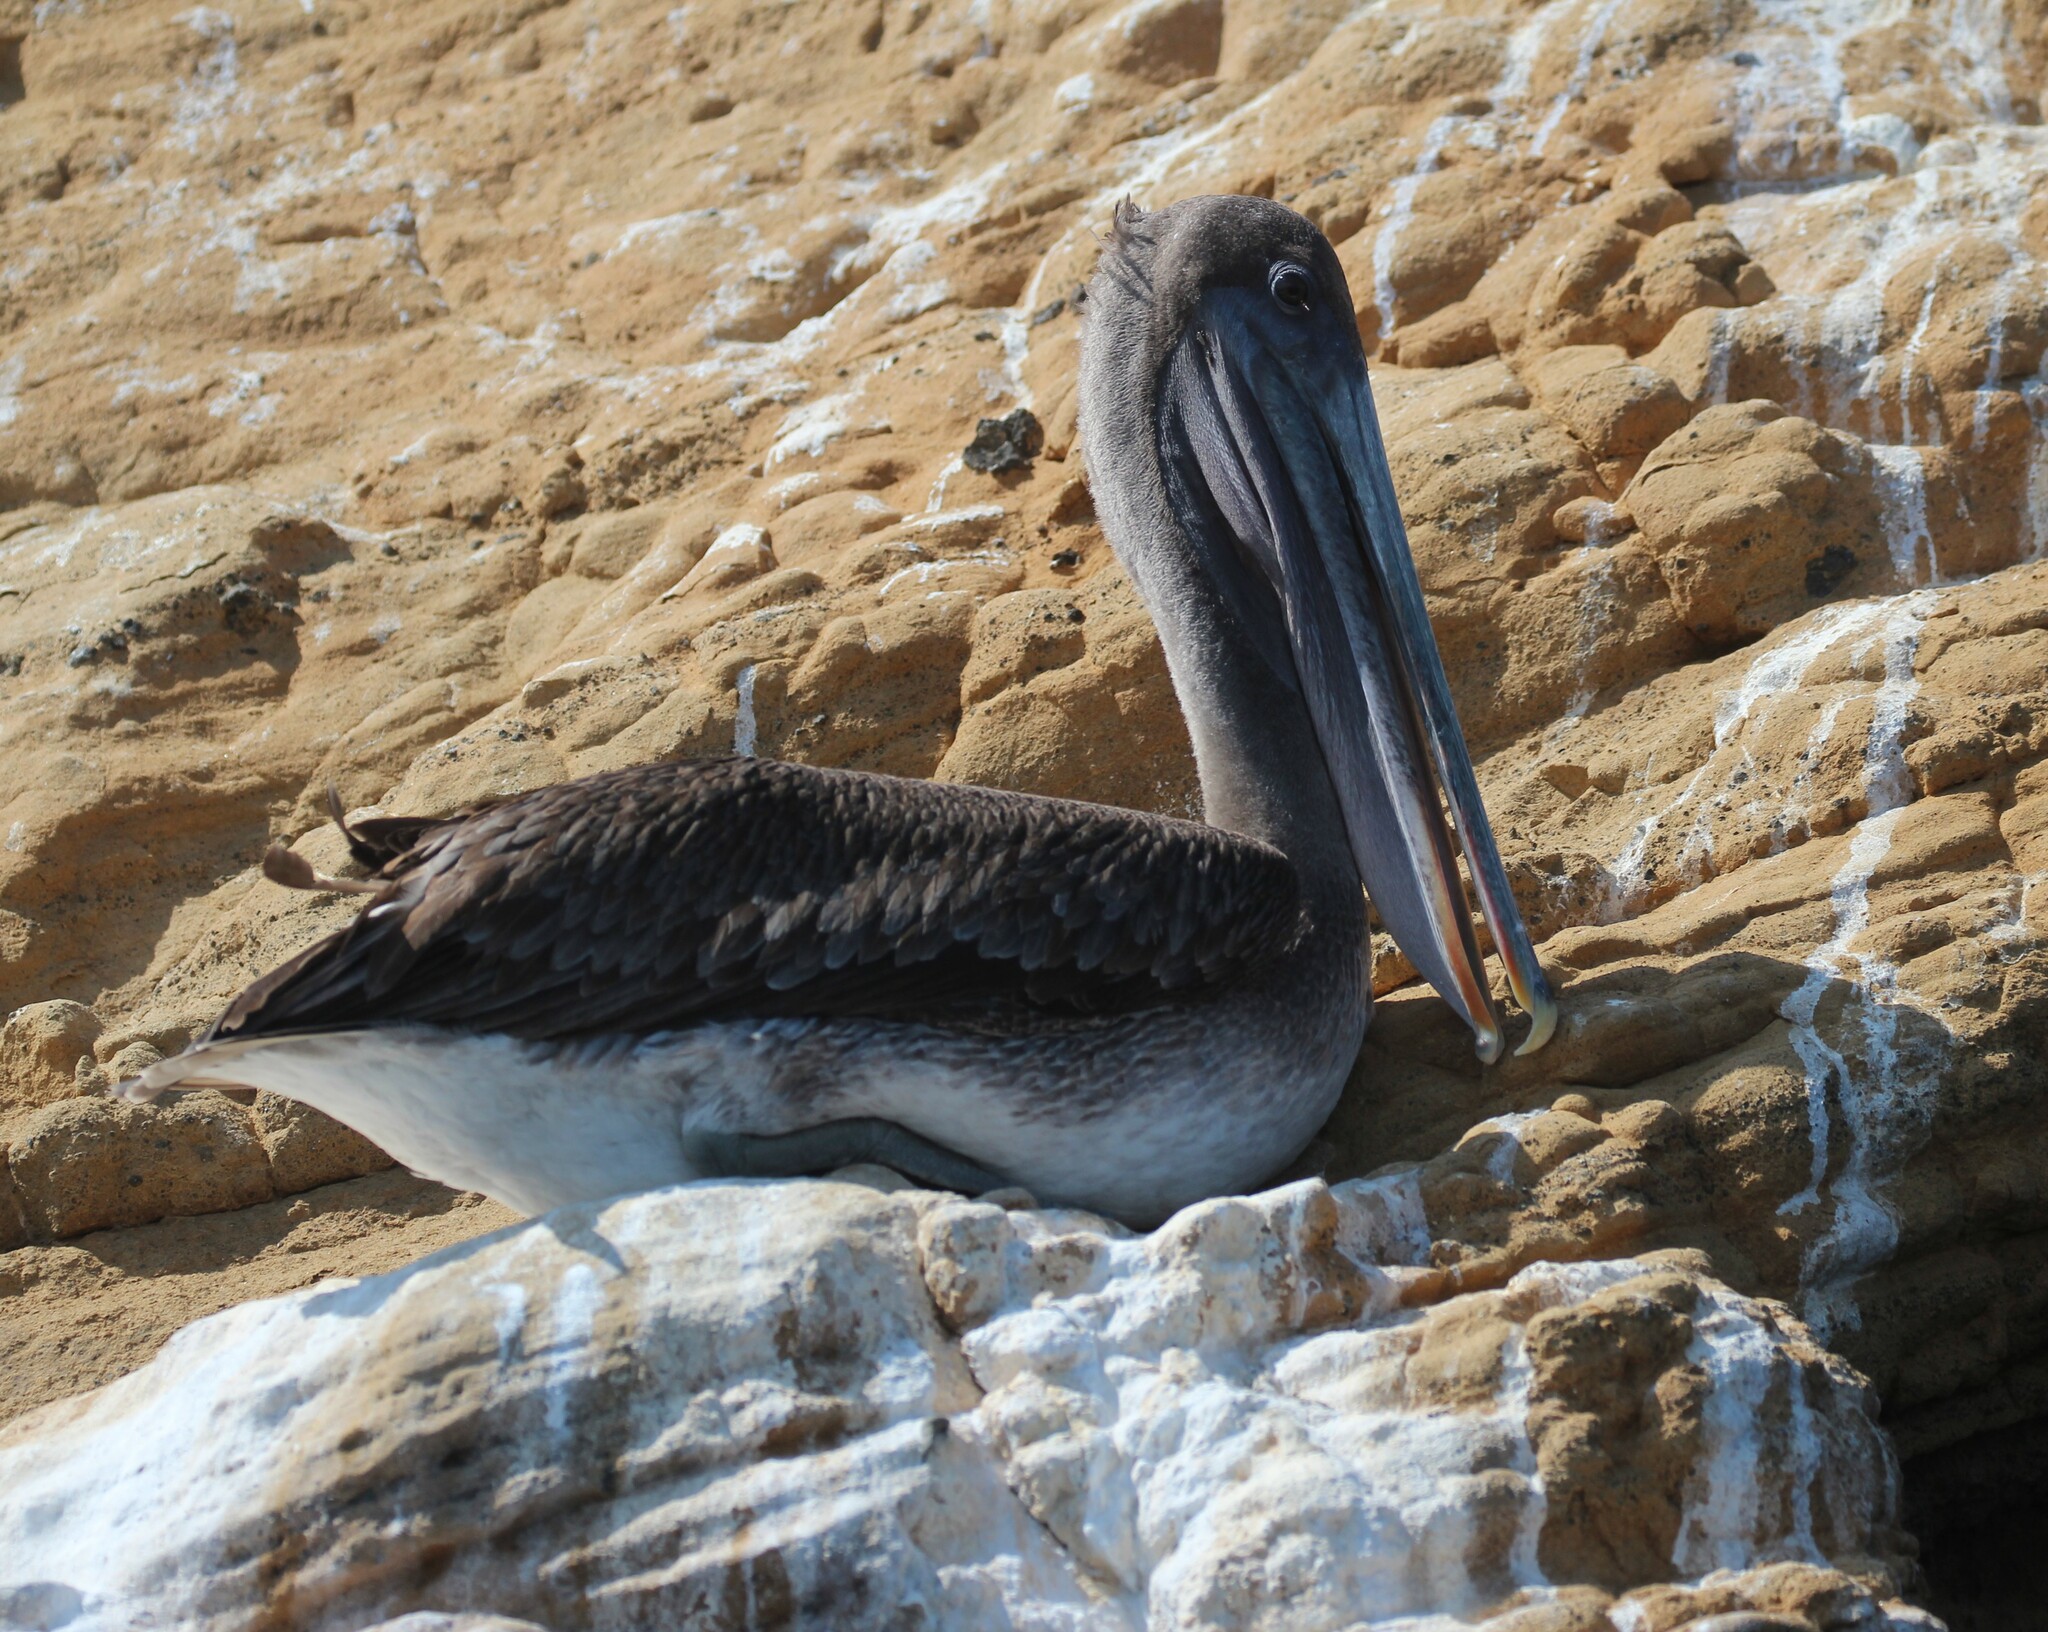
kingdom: Animalia
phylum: Chordata
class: Aves
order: Pelecaniformes
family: Pelecanidae
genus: Pelecanus
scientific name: Pelecanus occidentalis
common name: Brown pelican
